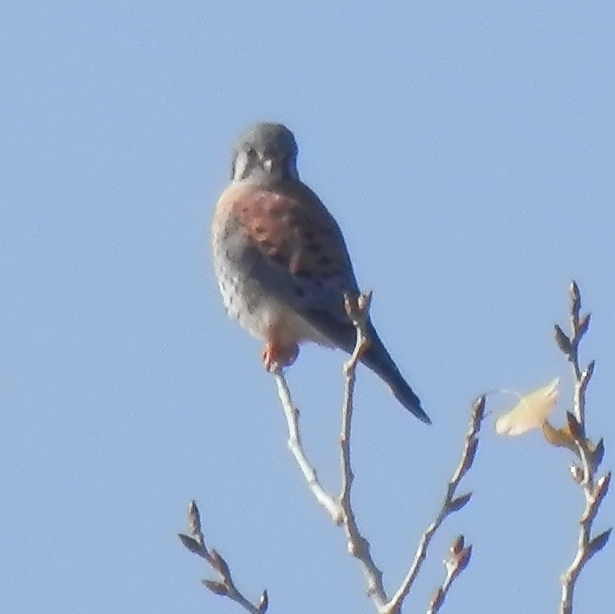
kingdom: Animalia
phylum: Chordata
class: Aves
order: Falconiformes
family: Falconidae
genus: Falco
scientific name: Falco sparverius
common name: American kestrel
